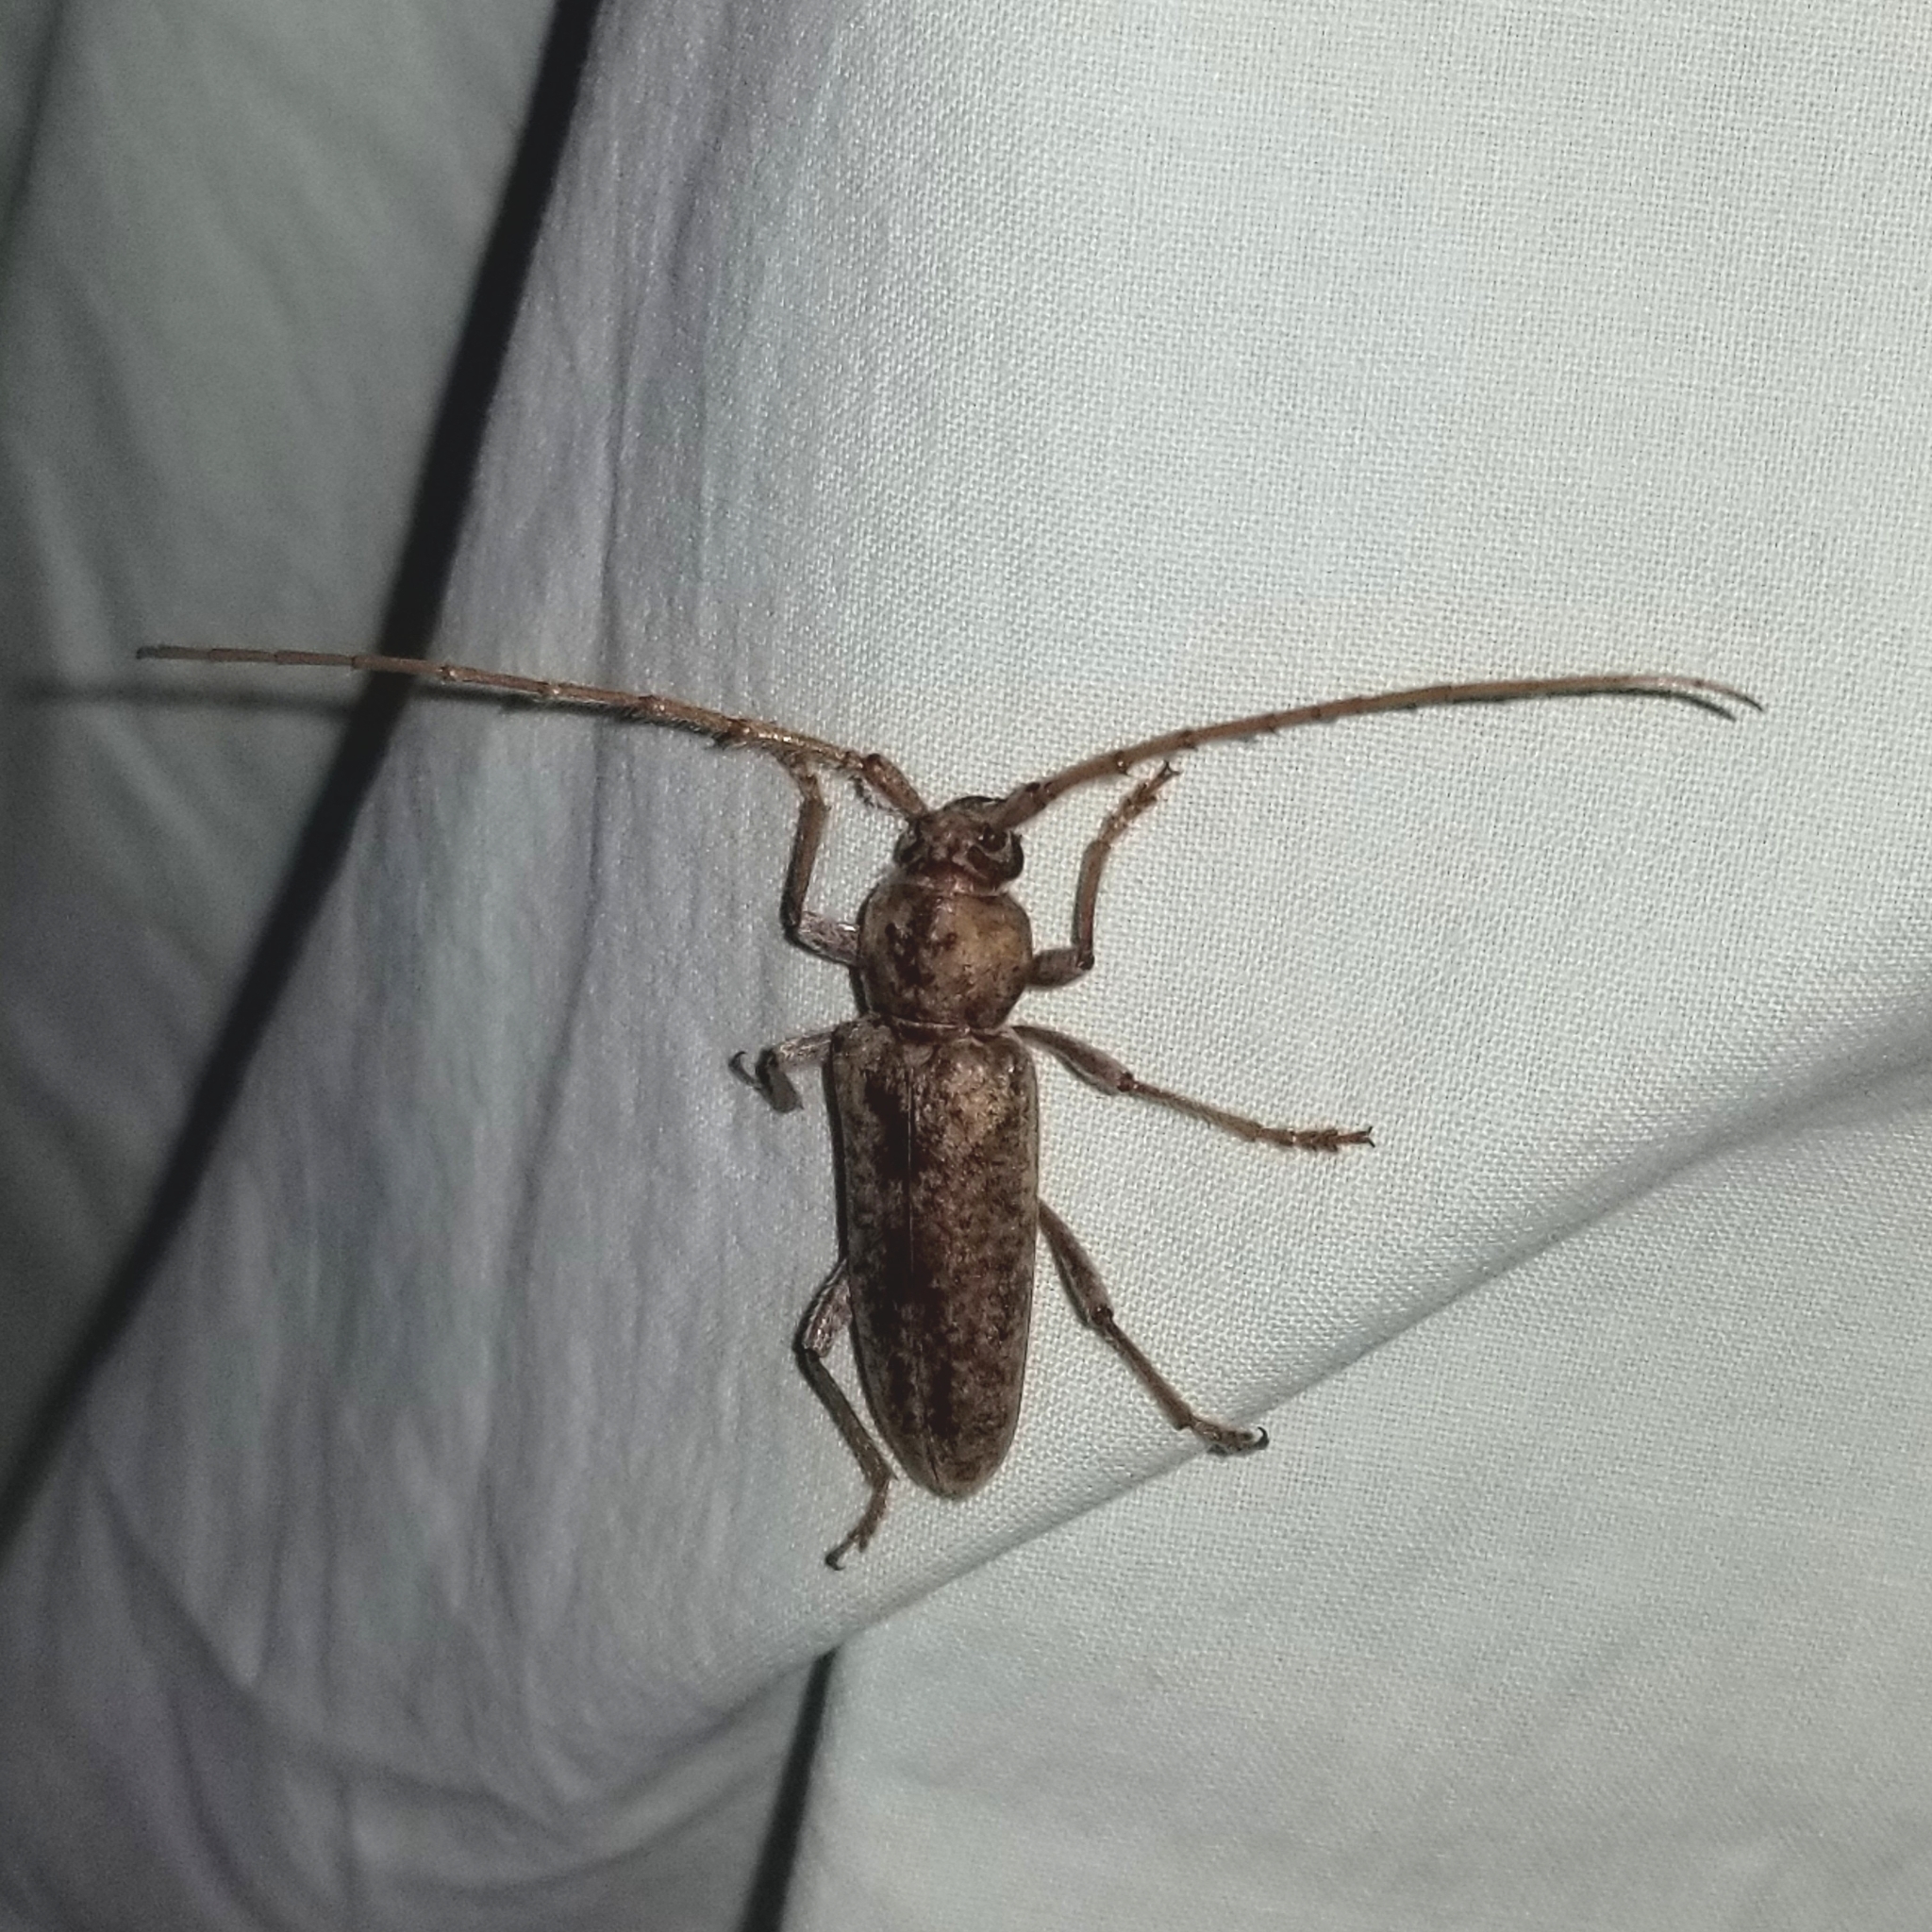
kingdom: Animalia
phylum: Arthropoda
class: Insecta
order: Coleoptera
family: Cerambycidae
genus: Enaphalodes
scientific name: Enaphalodes rufulus
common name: Red oak borer
